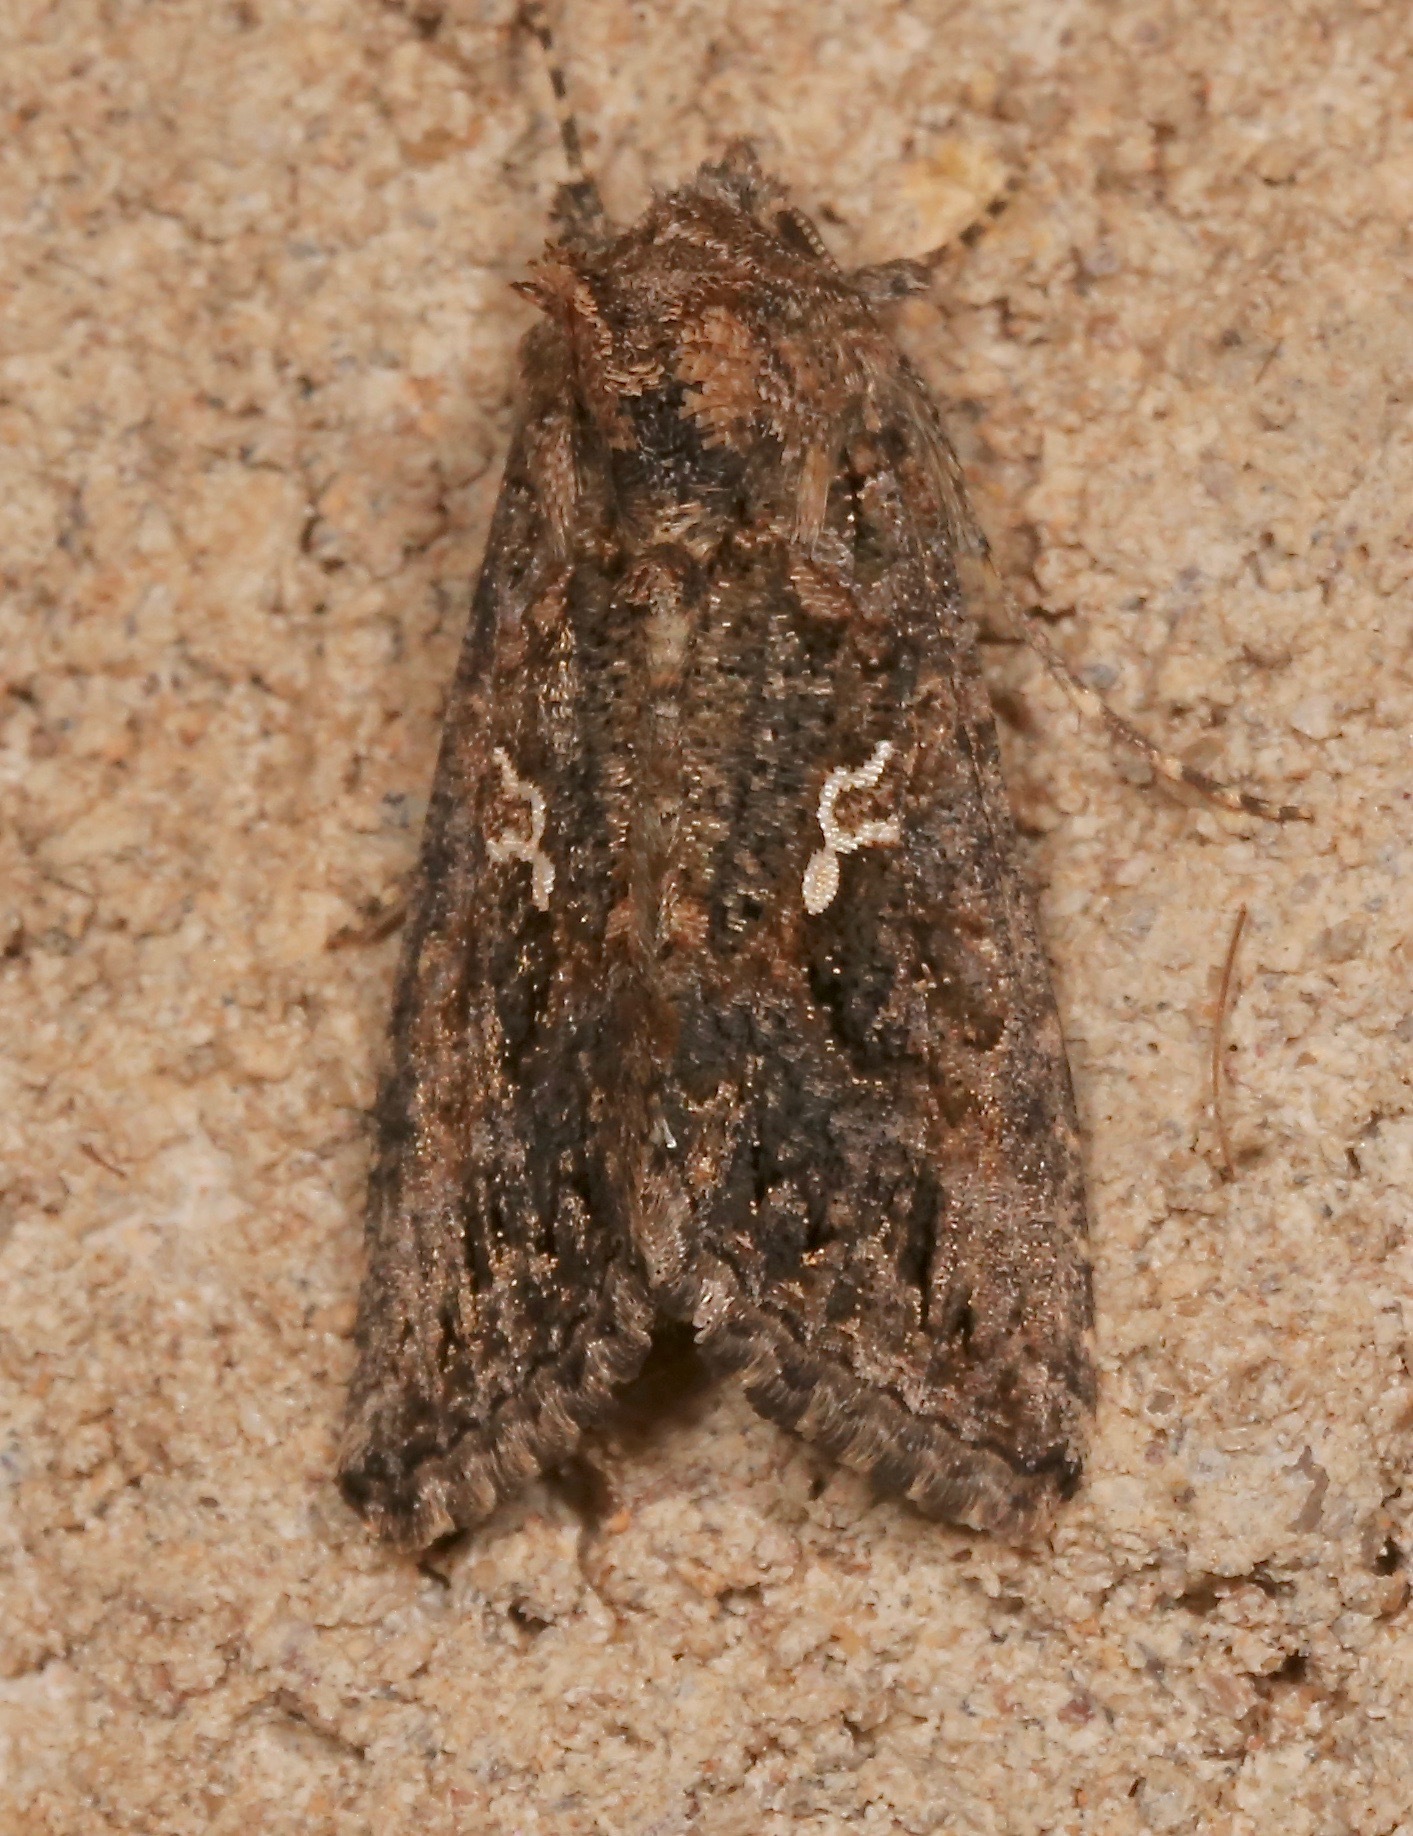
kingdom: Animalia
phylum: Arthropoda
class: Insecta
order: Lepidoptera
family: Noctuidae
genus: Trichoplusia
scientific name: Trichoplusia ni
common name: Ni moth
